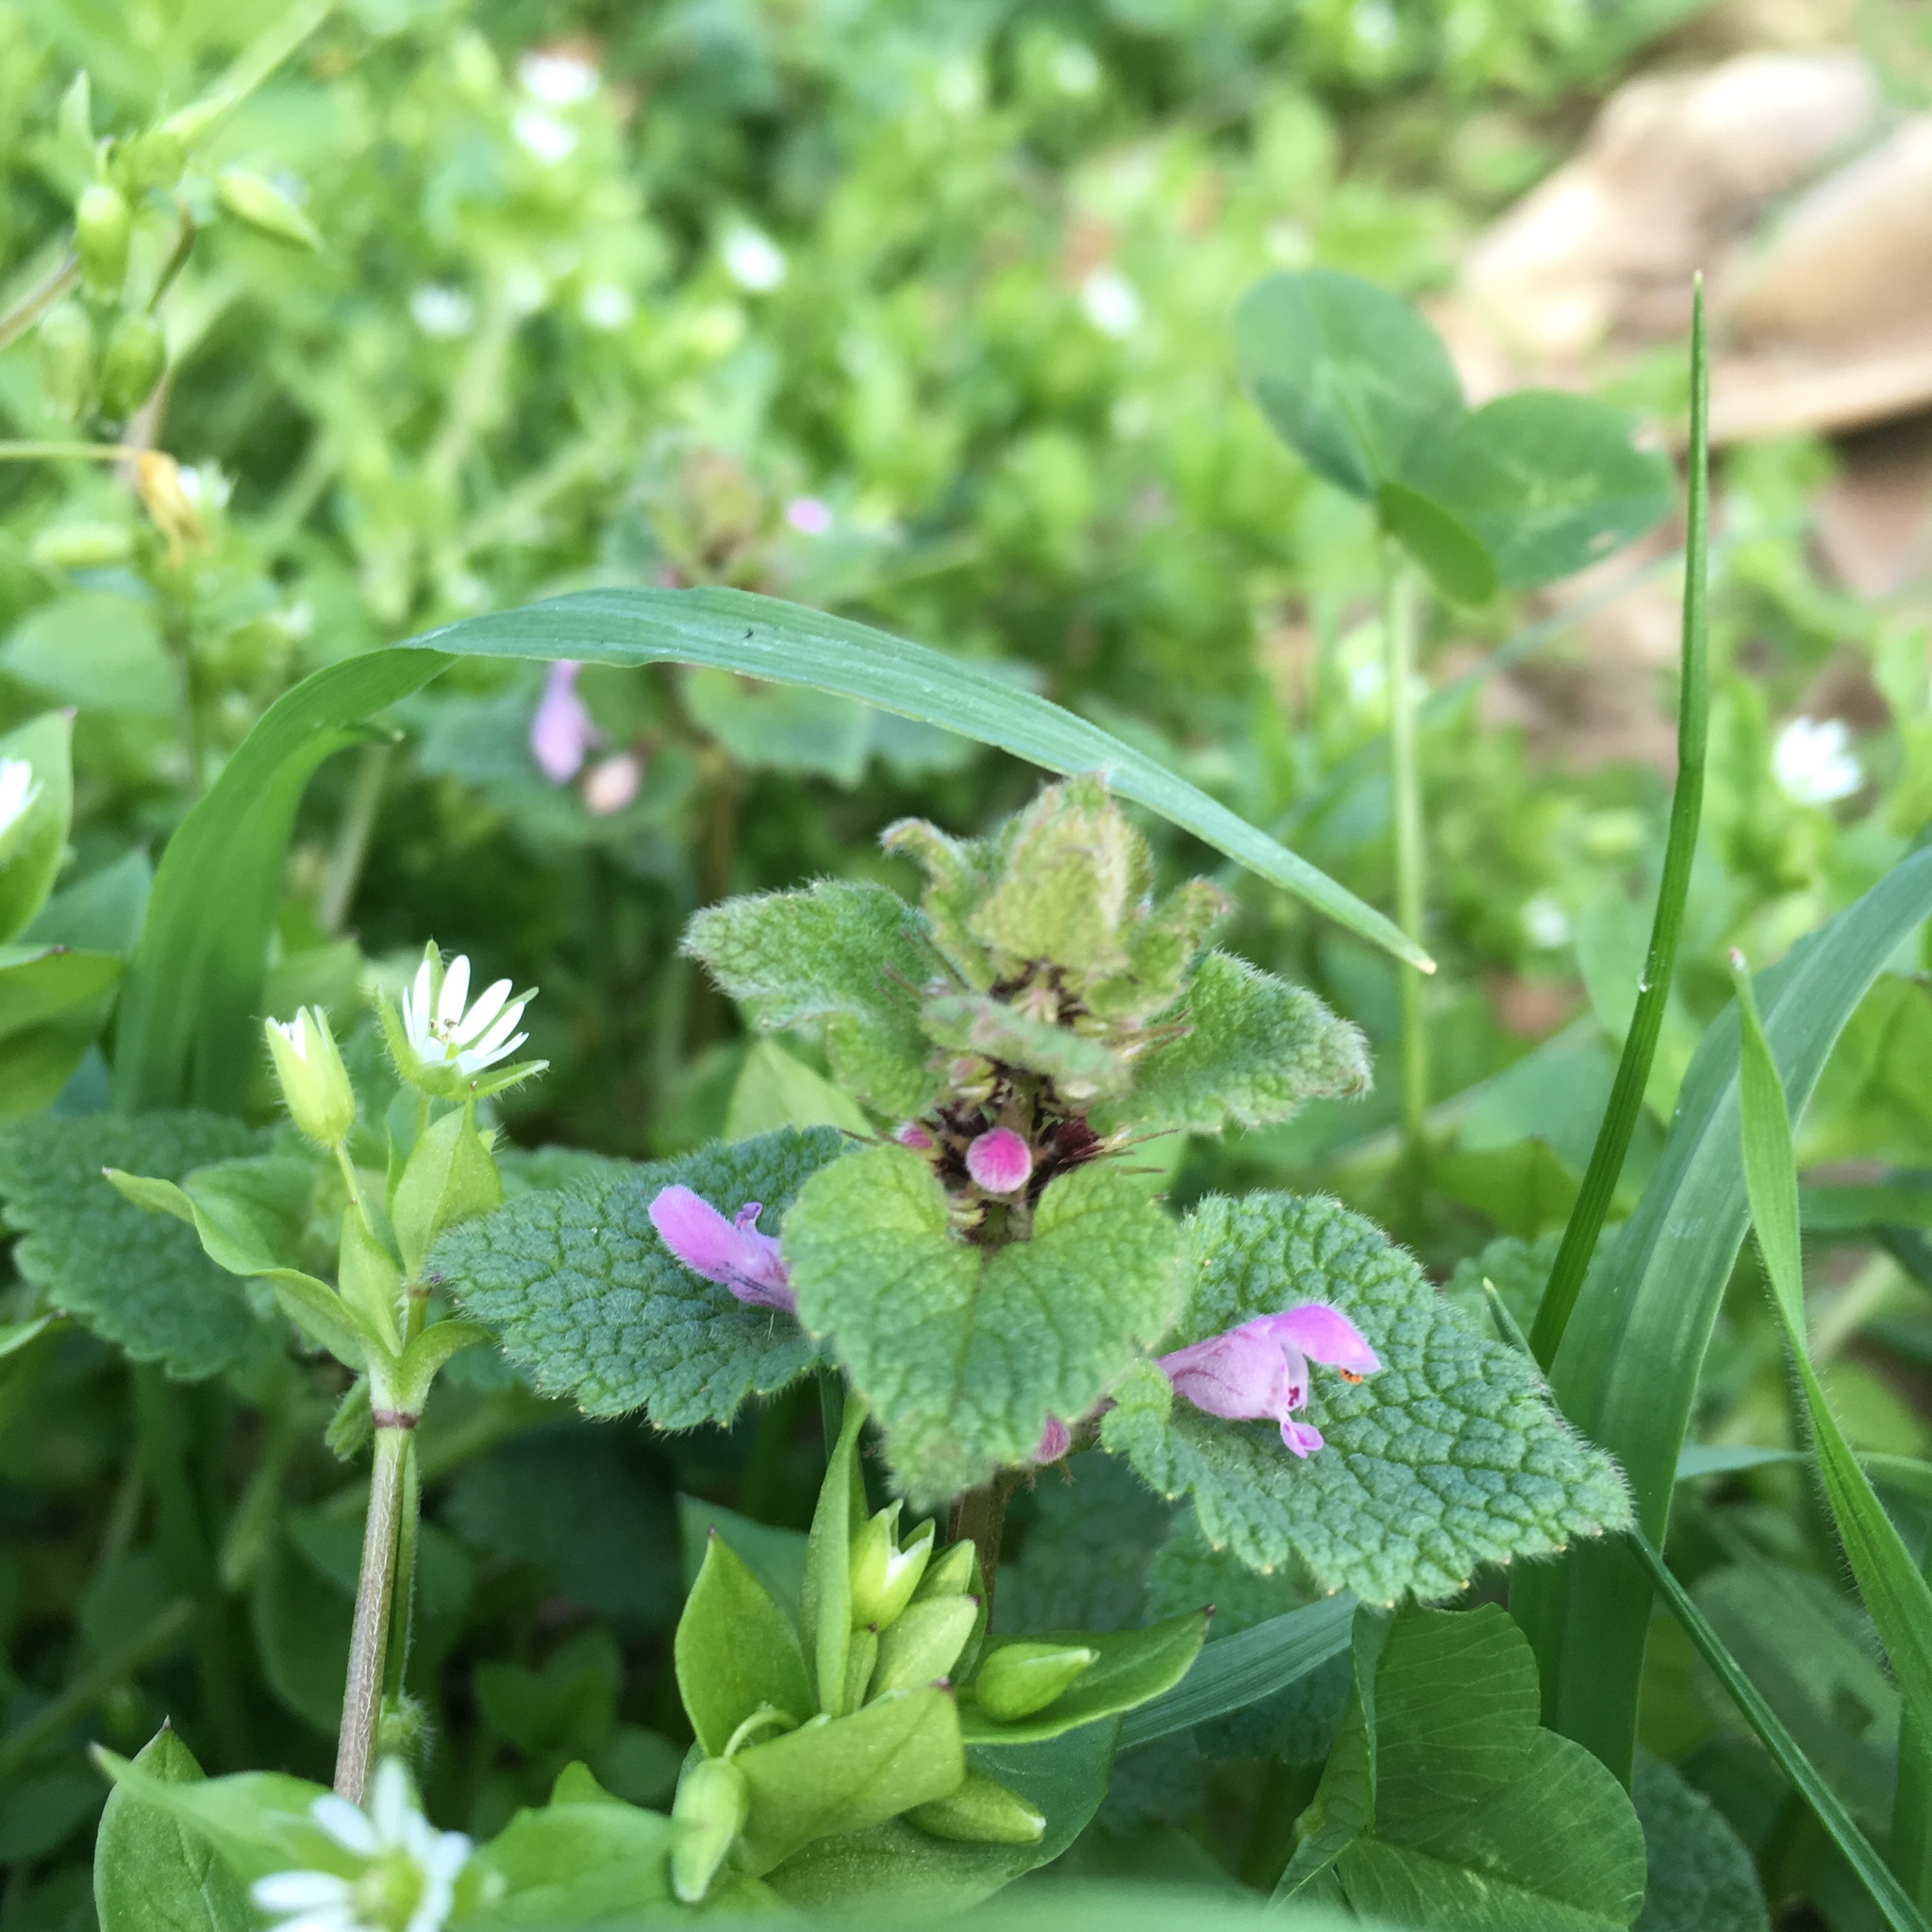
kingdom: Plantae
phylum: Tracheophyta
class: Magnoliopsida
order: Lamiales
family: Lamiaceae
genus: Lamium
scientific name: Lamium purpureum
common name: Red dead-nettle
